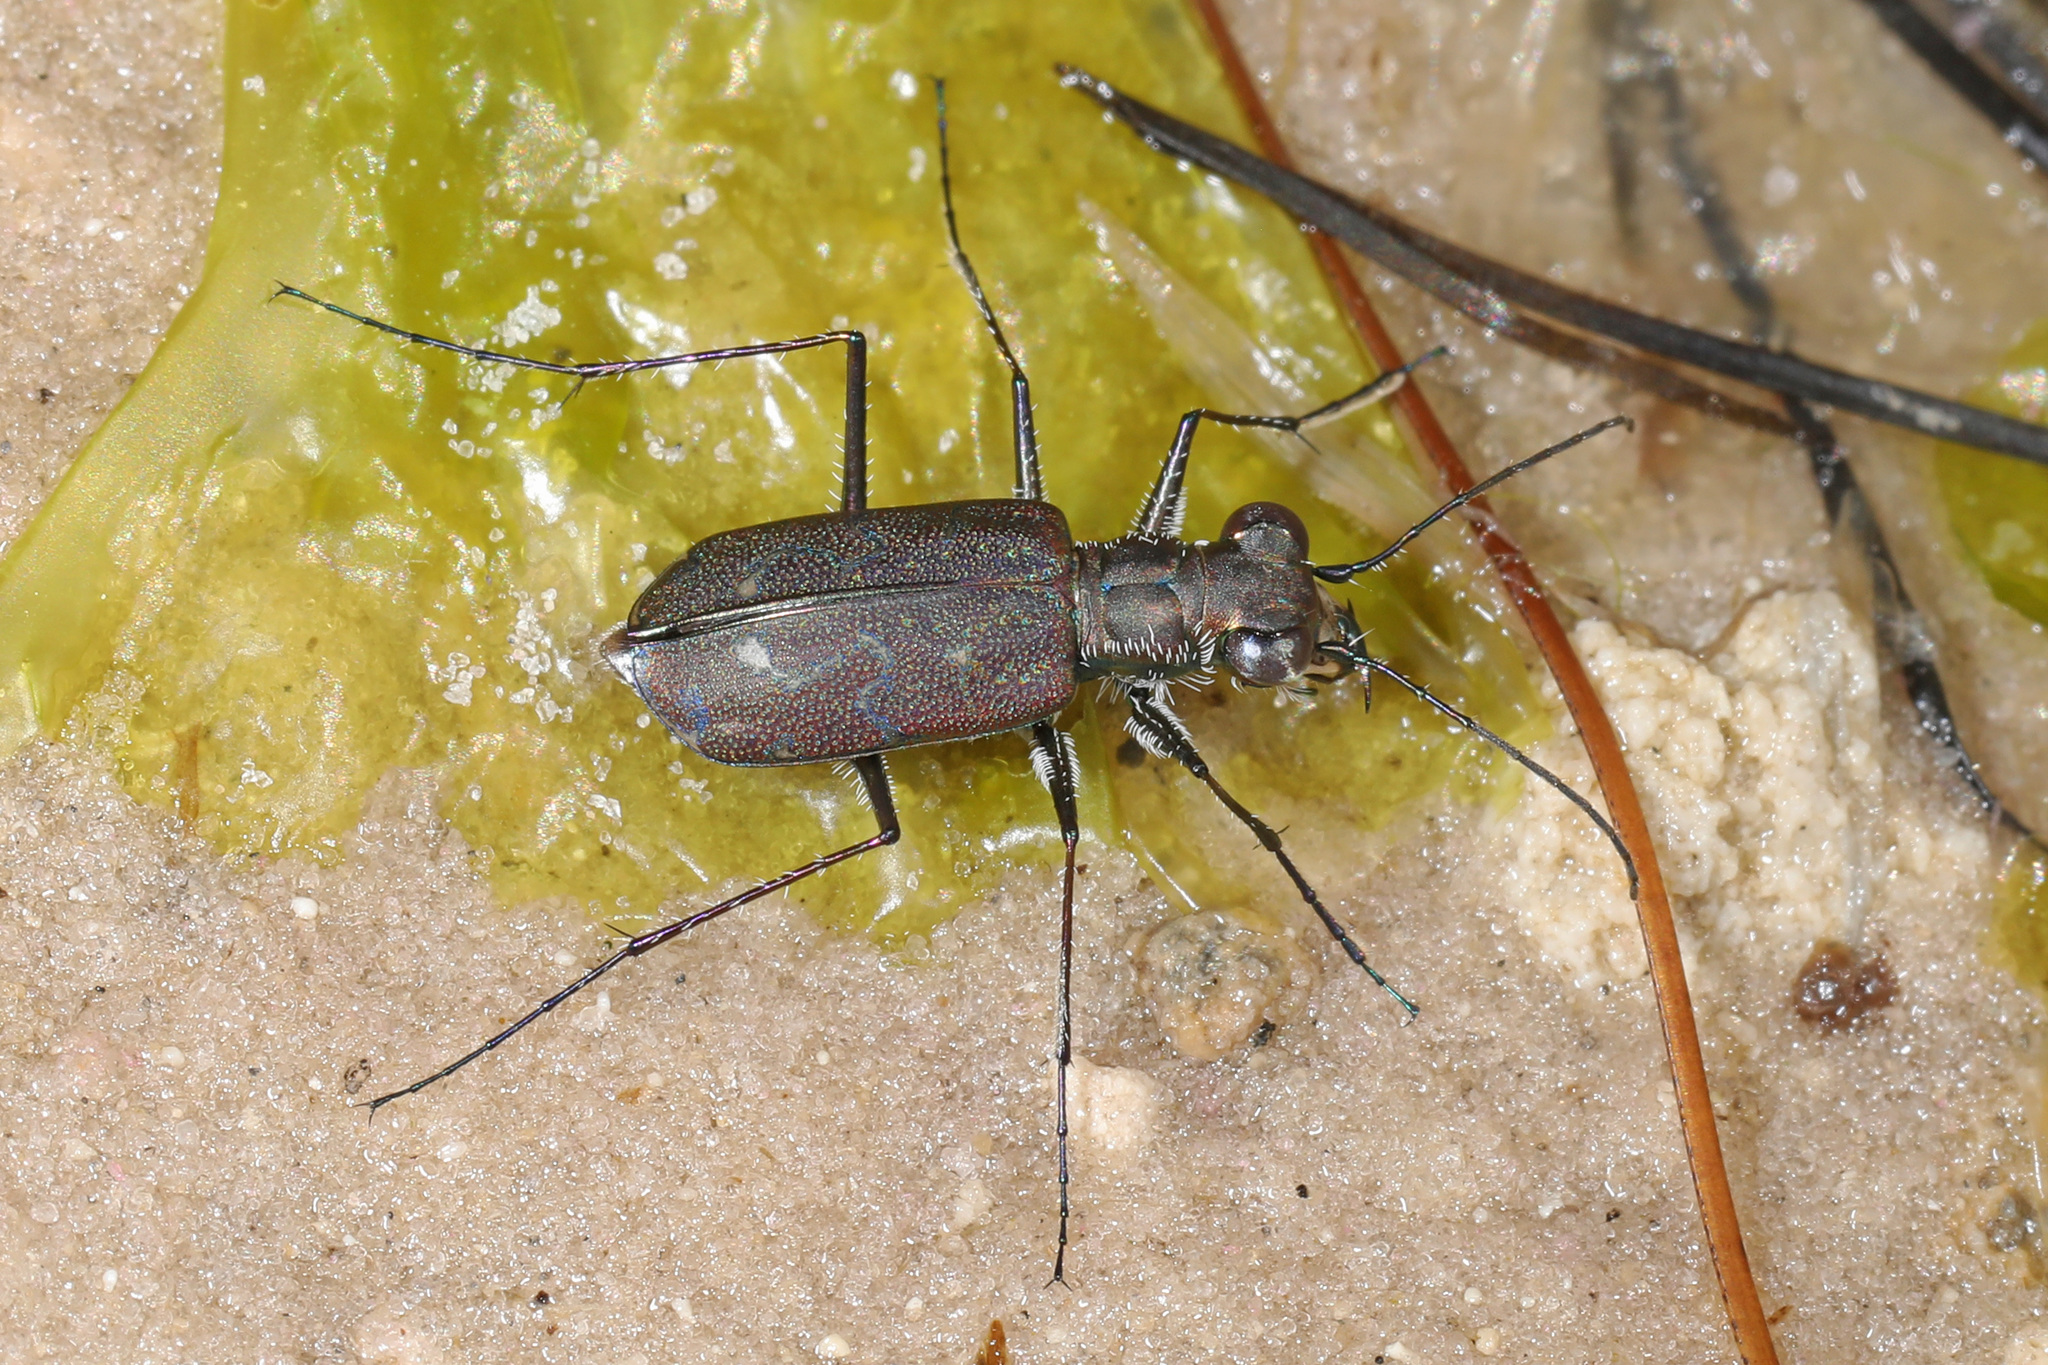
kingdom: Animalia
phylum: Arthropoda
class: Insecta
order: Coleoptera
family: Carabidae
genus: Cicindela
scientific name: Cicindela trifasciata
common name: Mudflat tiger beetle
